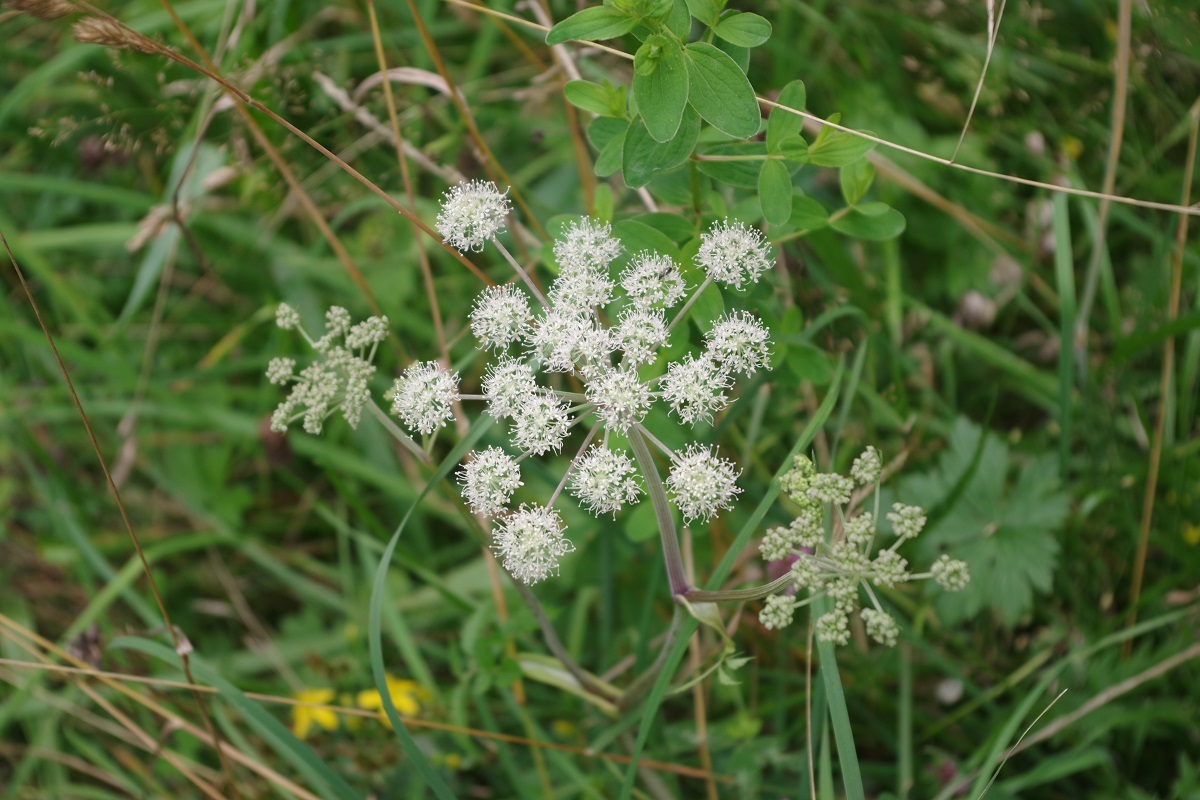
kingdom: Plantae
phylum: Tracheophyta
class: Magnoliopsida
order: Apiales
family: Apiaceae
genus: Angelica
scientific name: Angelica sylvestris
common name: Wild angelica
